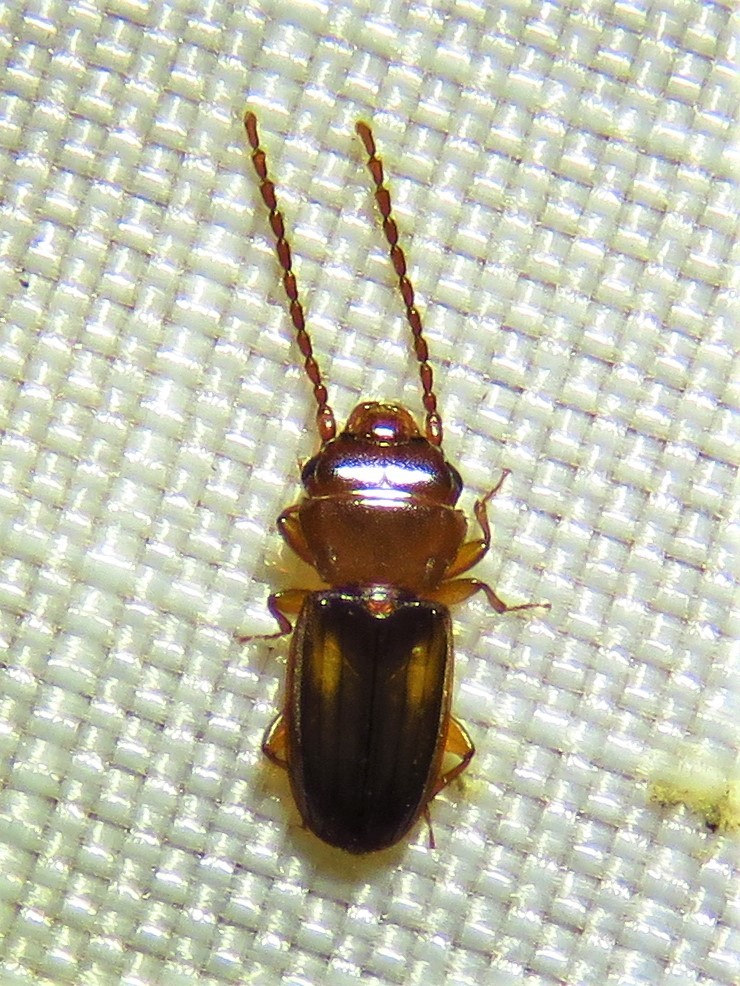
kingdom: Animalia
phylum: Arthropoda
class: Insecta
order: Coleoptera
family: Laemophloeidae
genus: Laemophloeus
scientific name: Laemophloeus biguttatus
